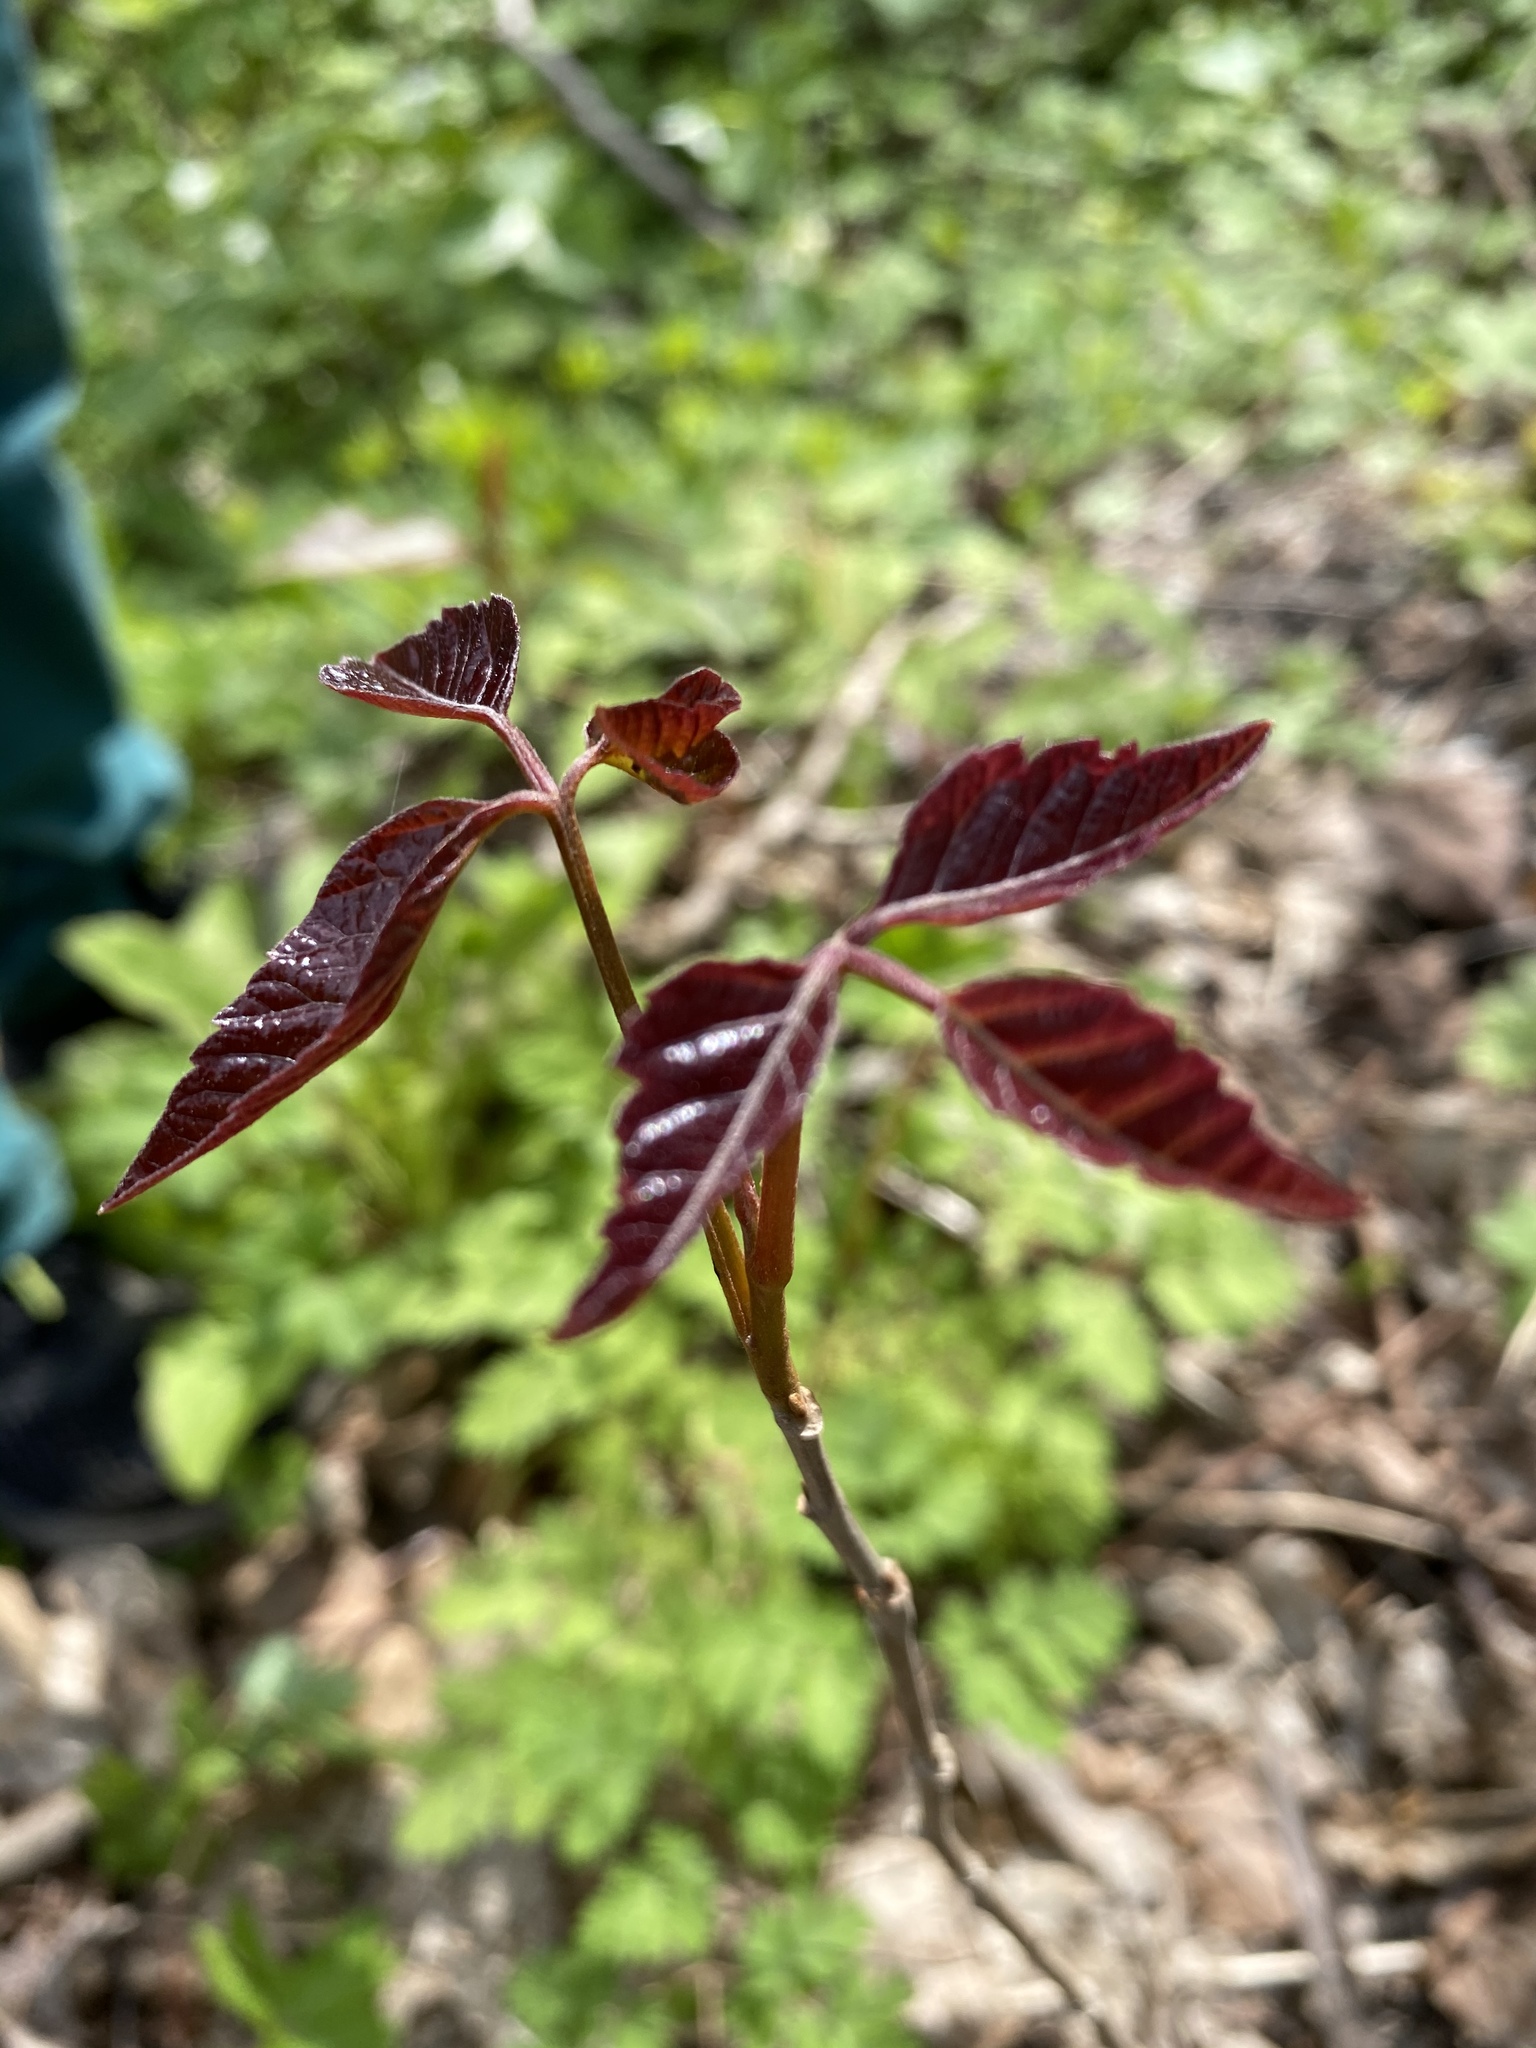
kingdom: Plantae
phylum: Tracheophyta
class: Magnoliopsida
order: Sapindales
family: Anacardiaceae
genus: Toxicodendron
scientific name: Toxicodendron radicans
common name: Poison ivy
